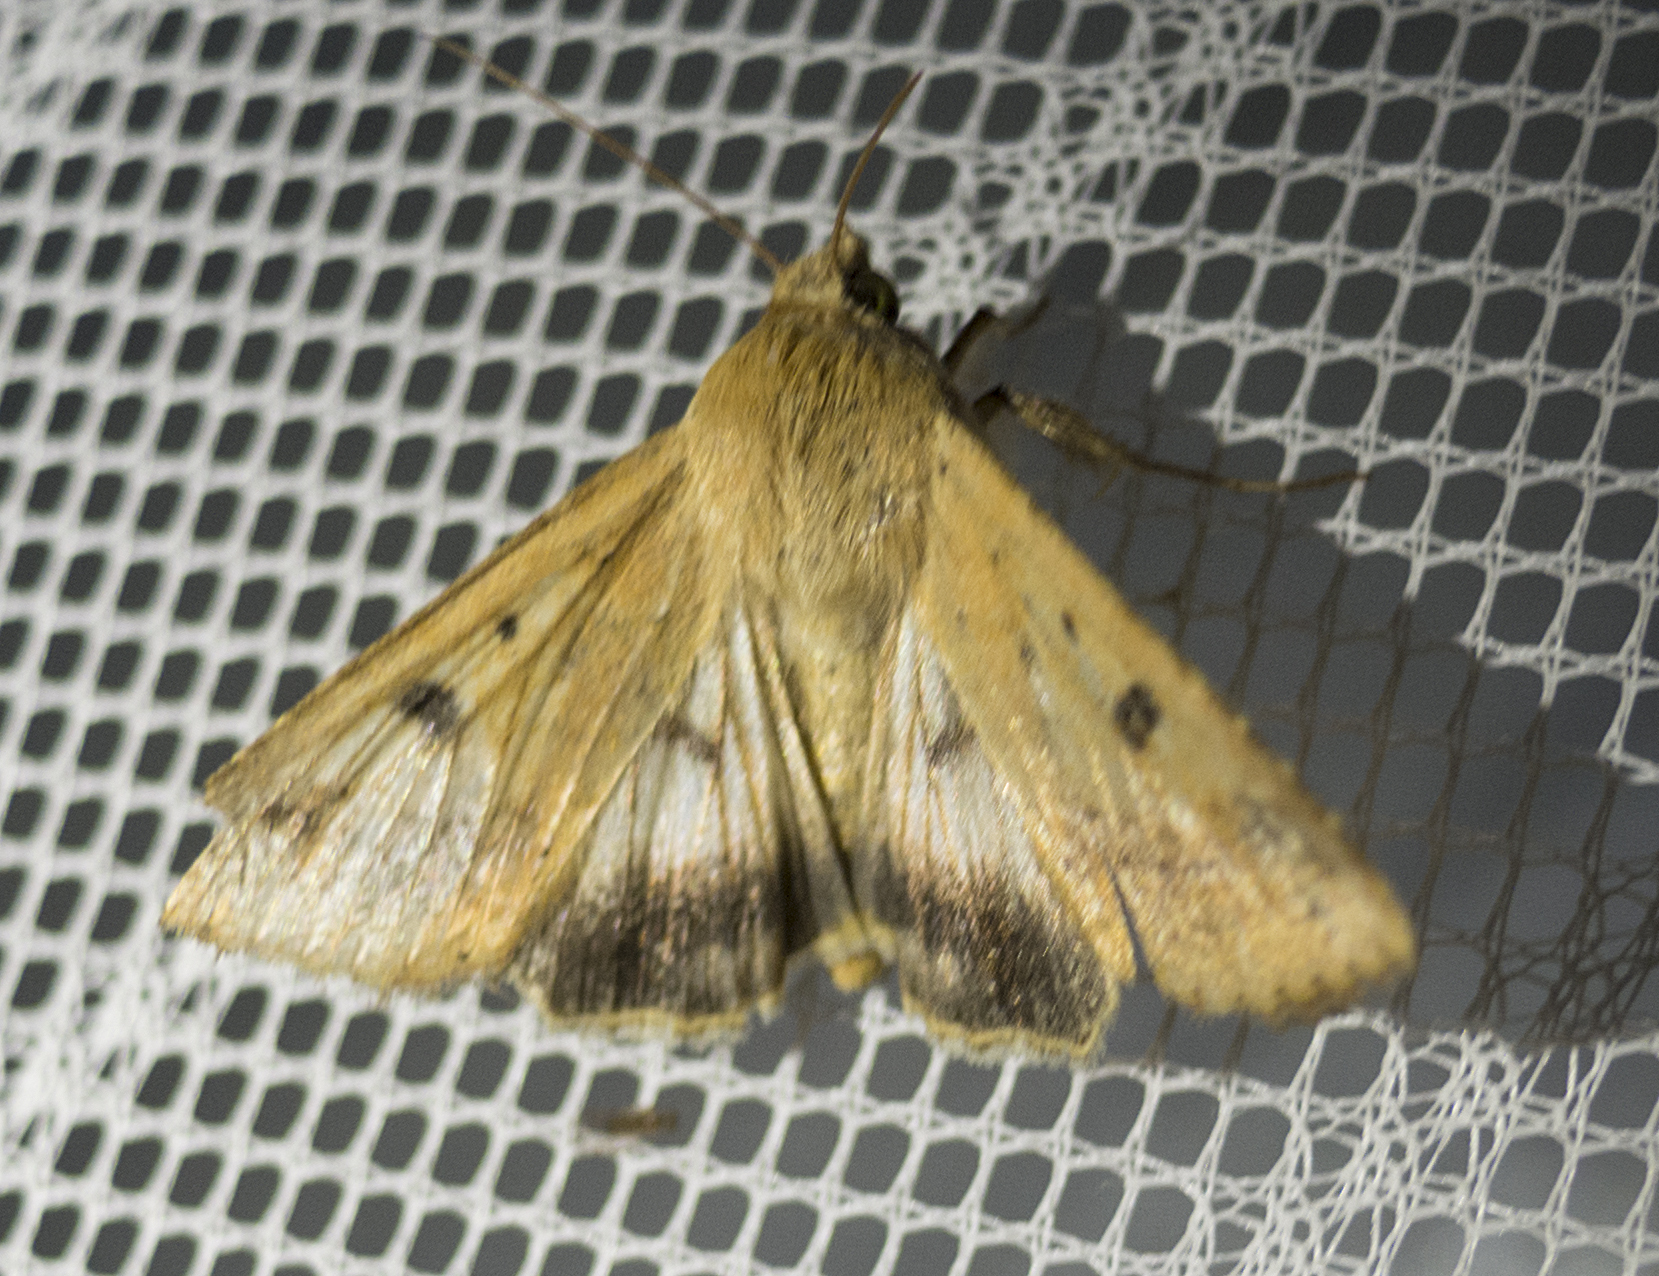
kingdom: Animalia
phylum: Arthropoda
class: Insecta
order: Lepidoptera
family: Noctuidae
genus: Helicoverpa
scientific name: Helicoverpa armigera
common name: Cotton bollworm
